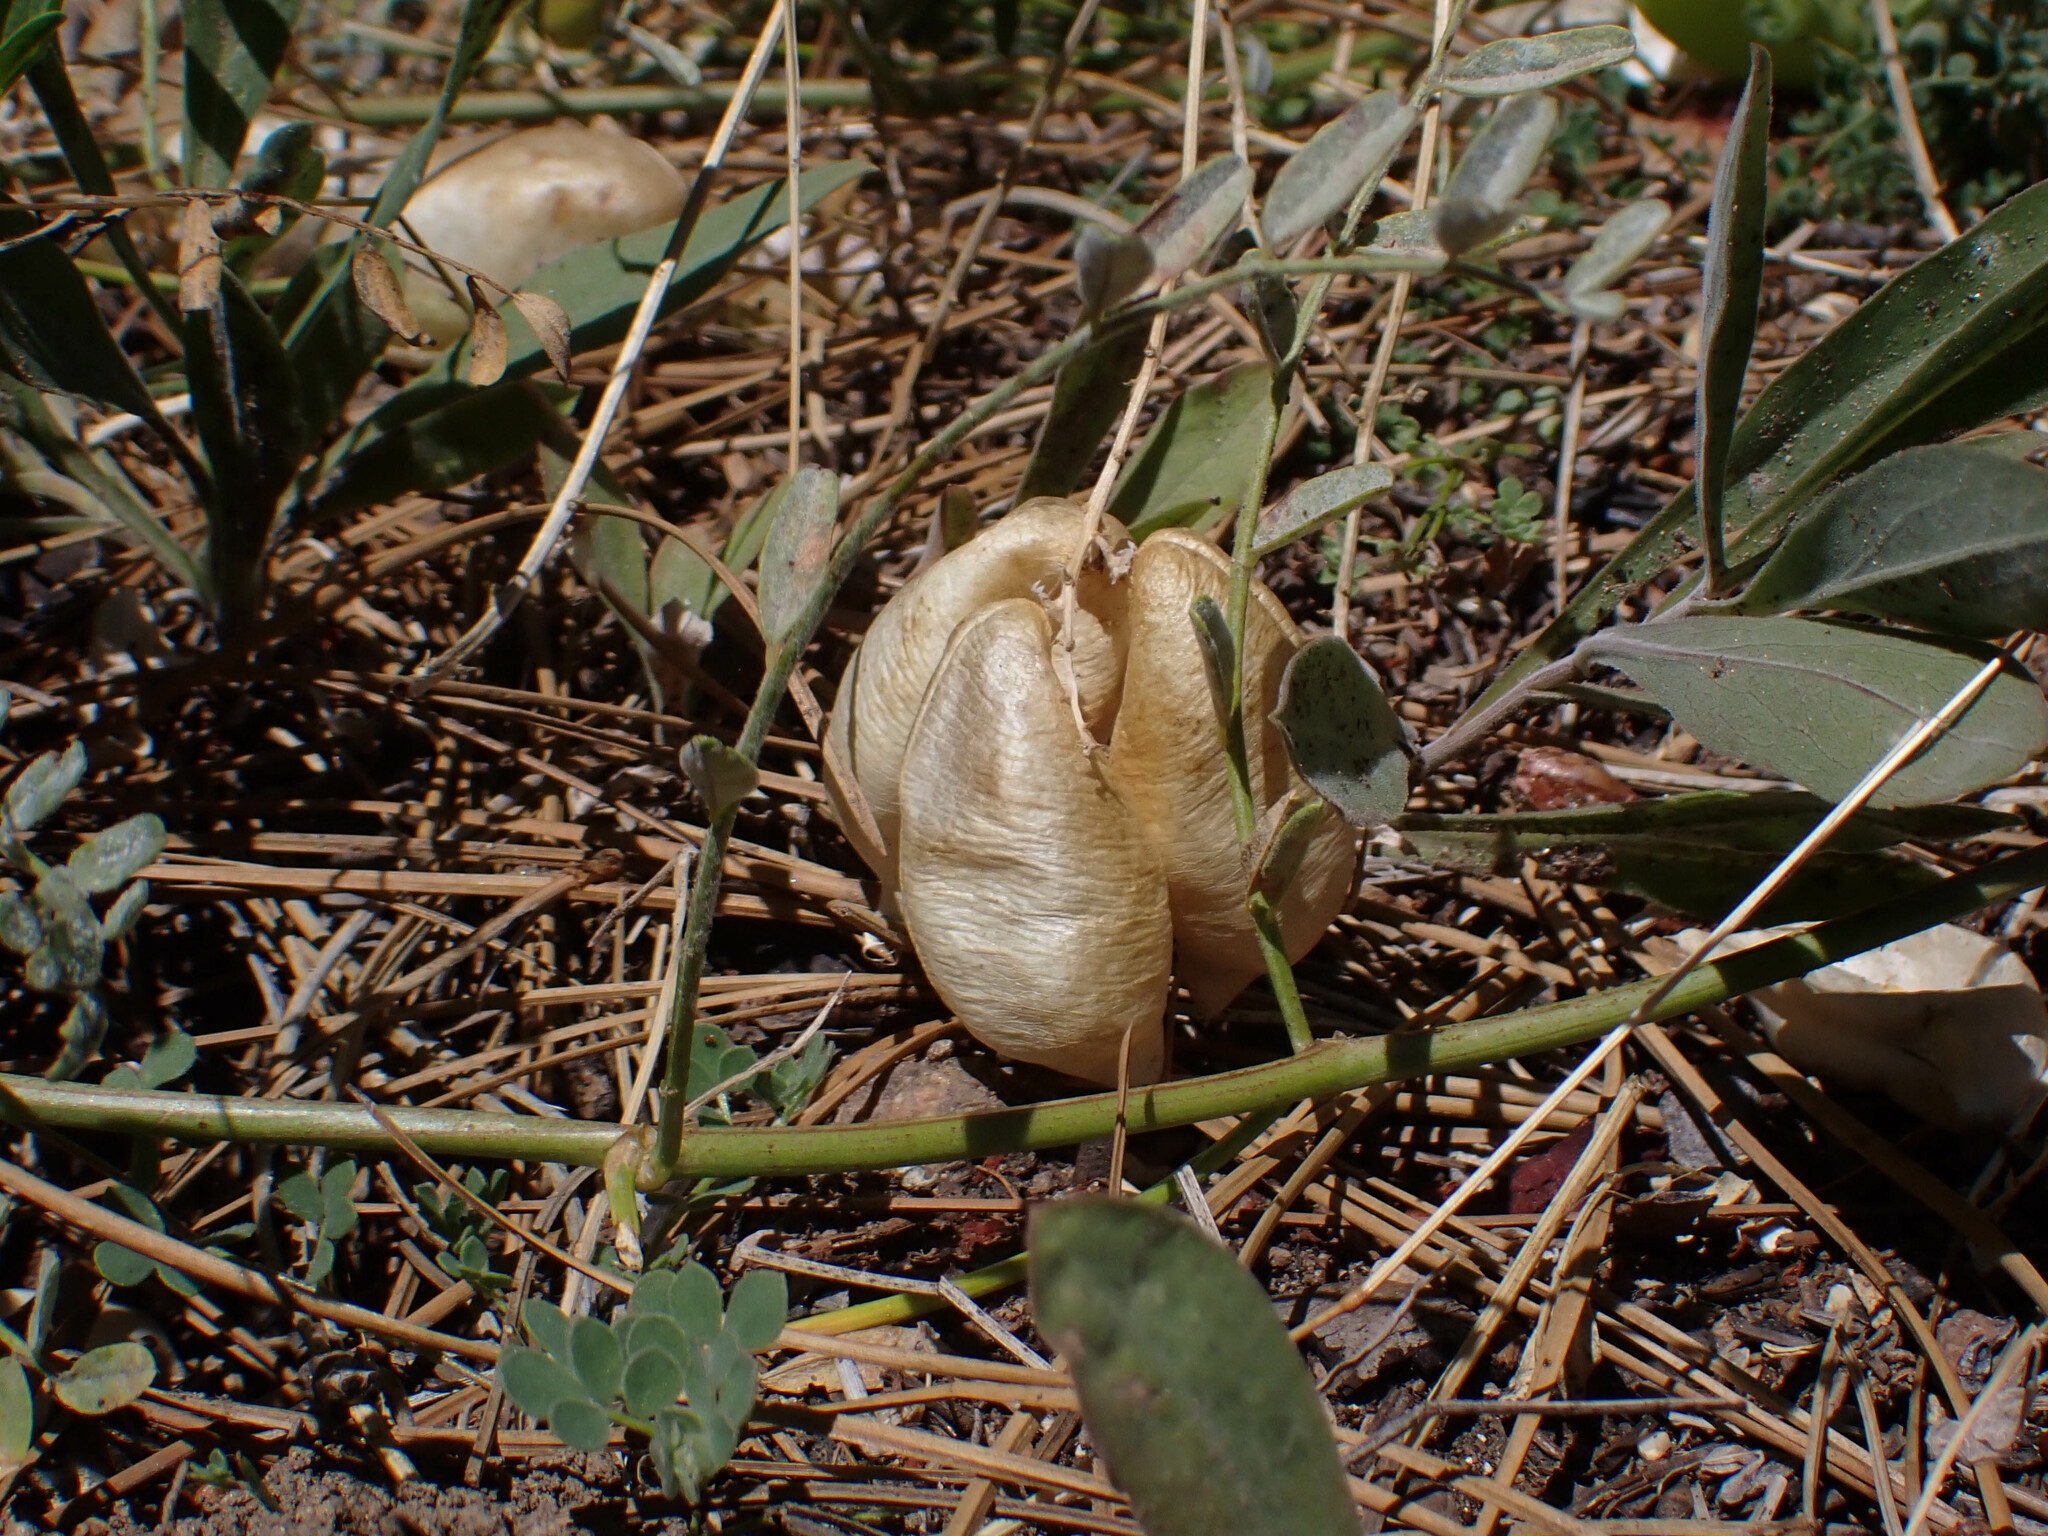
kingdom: Plantae
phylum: Tracheophyta
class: Magnoliopsida
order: Fabales
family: Fabaceae
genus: Astragalus
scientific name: Astragalus douglasii
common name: Jacumba milkvetch
